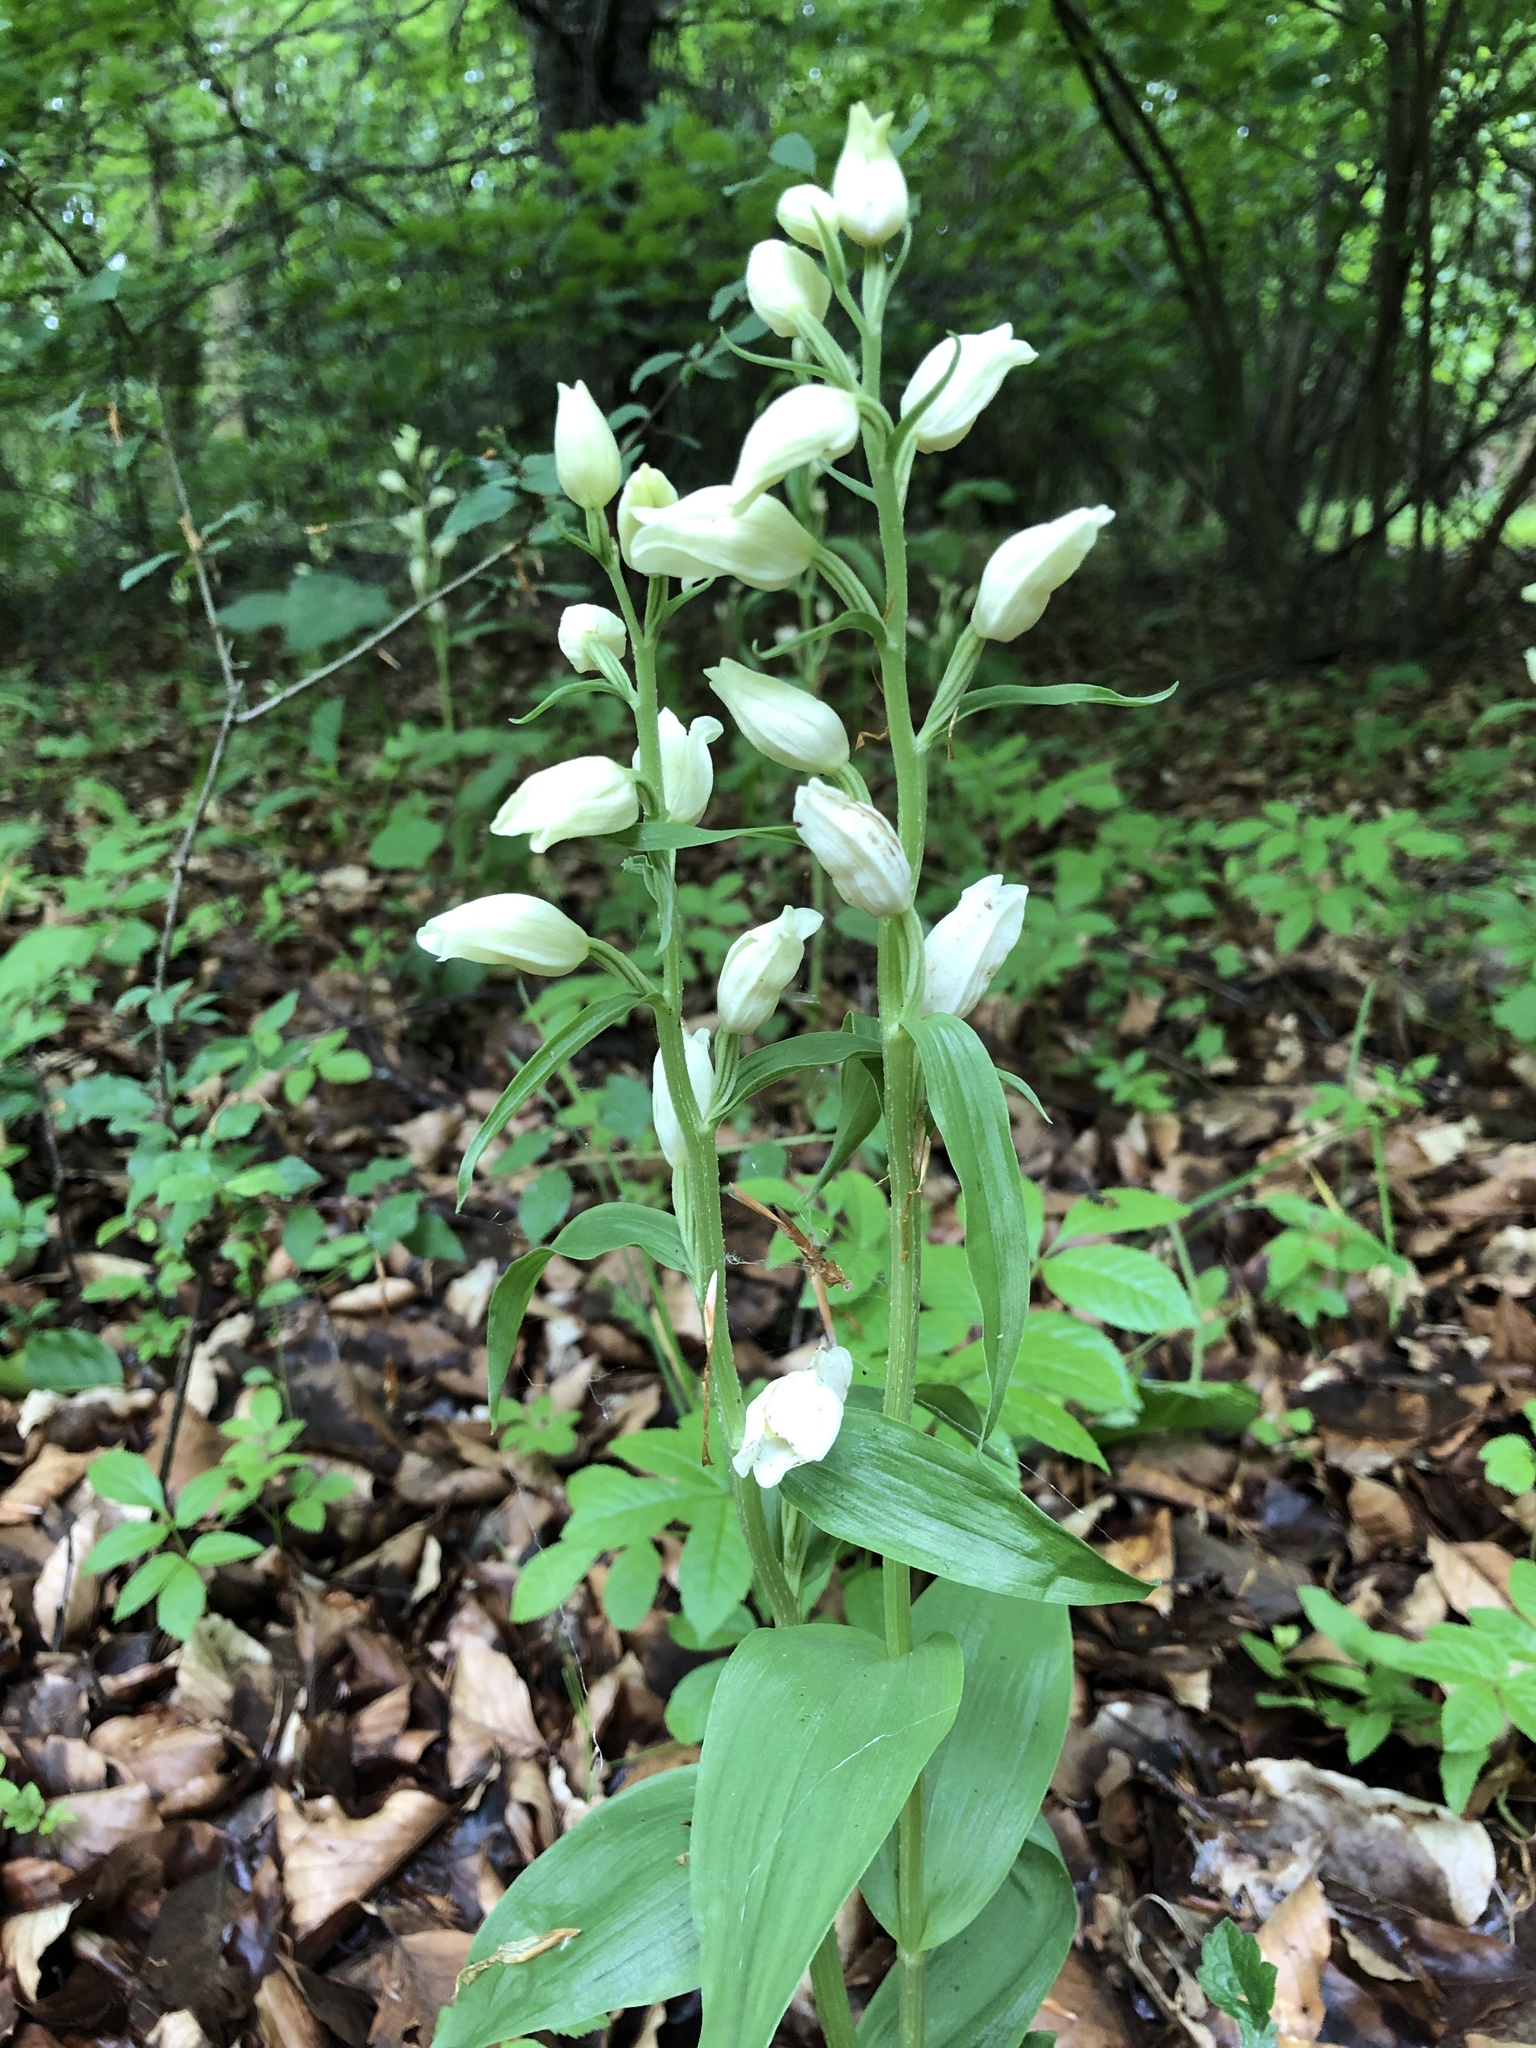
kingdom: Plantae
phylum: Tracheophyta
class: Liliopsida
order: Asparagales
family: Orchidaceae
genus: Cephalanthera
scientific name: Cephalanthera damasonium
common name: White helleborine
